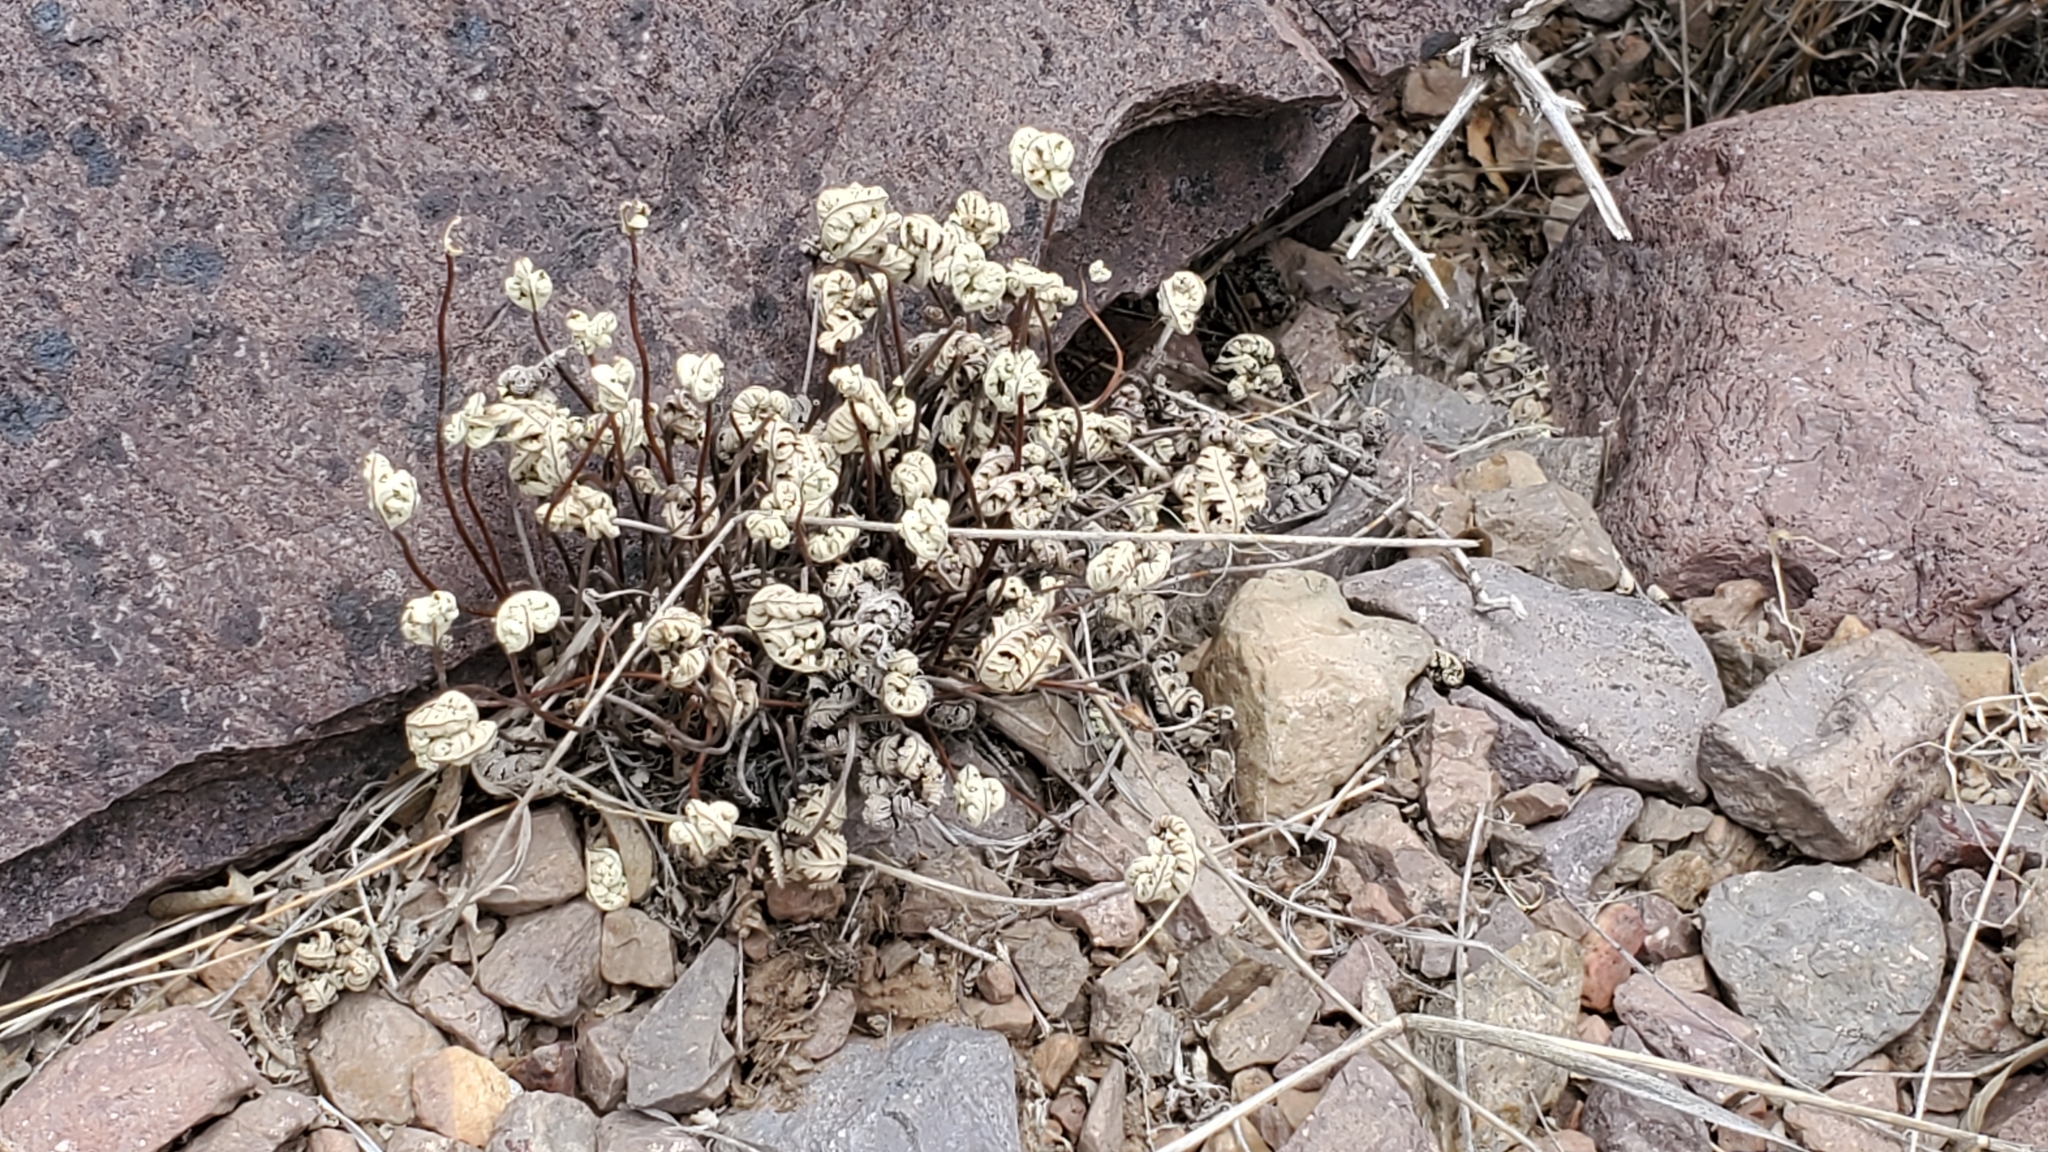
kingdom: Plantae
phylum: Tracheophyta
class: Polypodiopsida
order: Polypodiales
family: Pteridaceae
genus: Notholaena
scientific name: Notholaena standleyi
